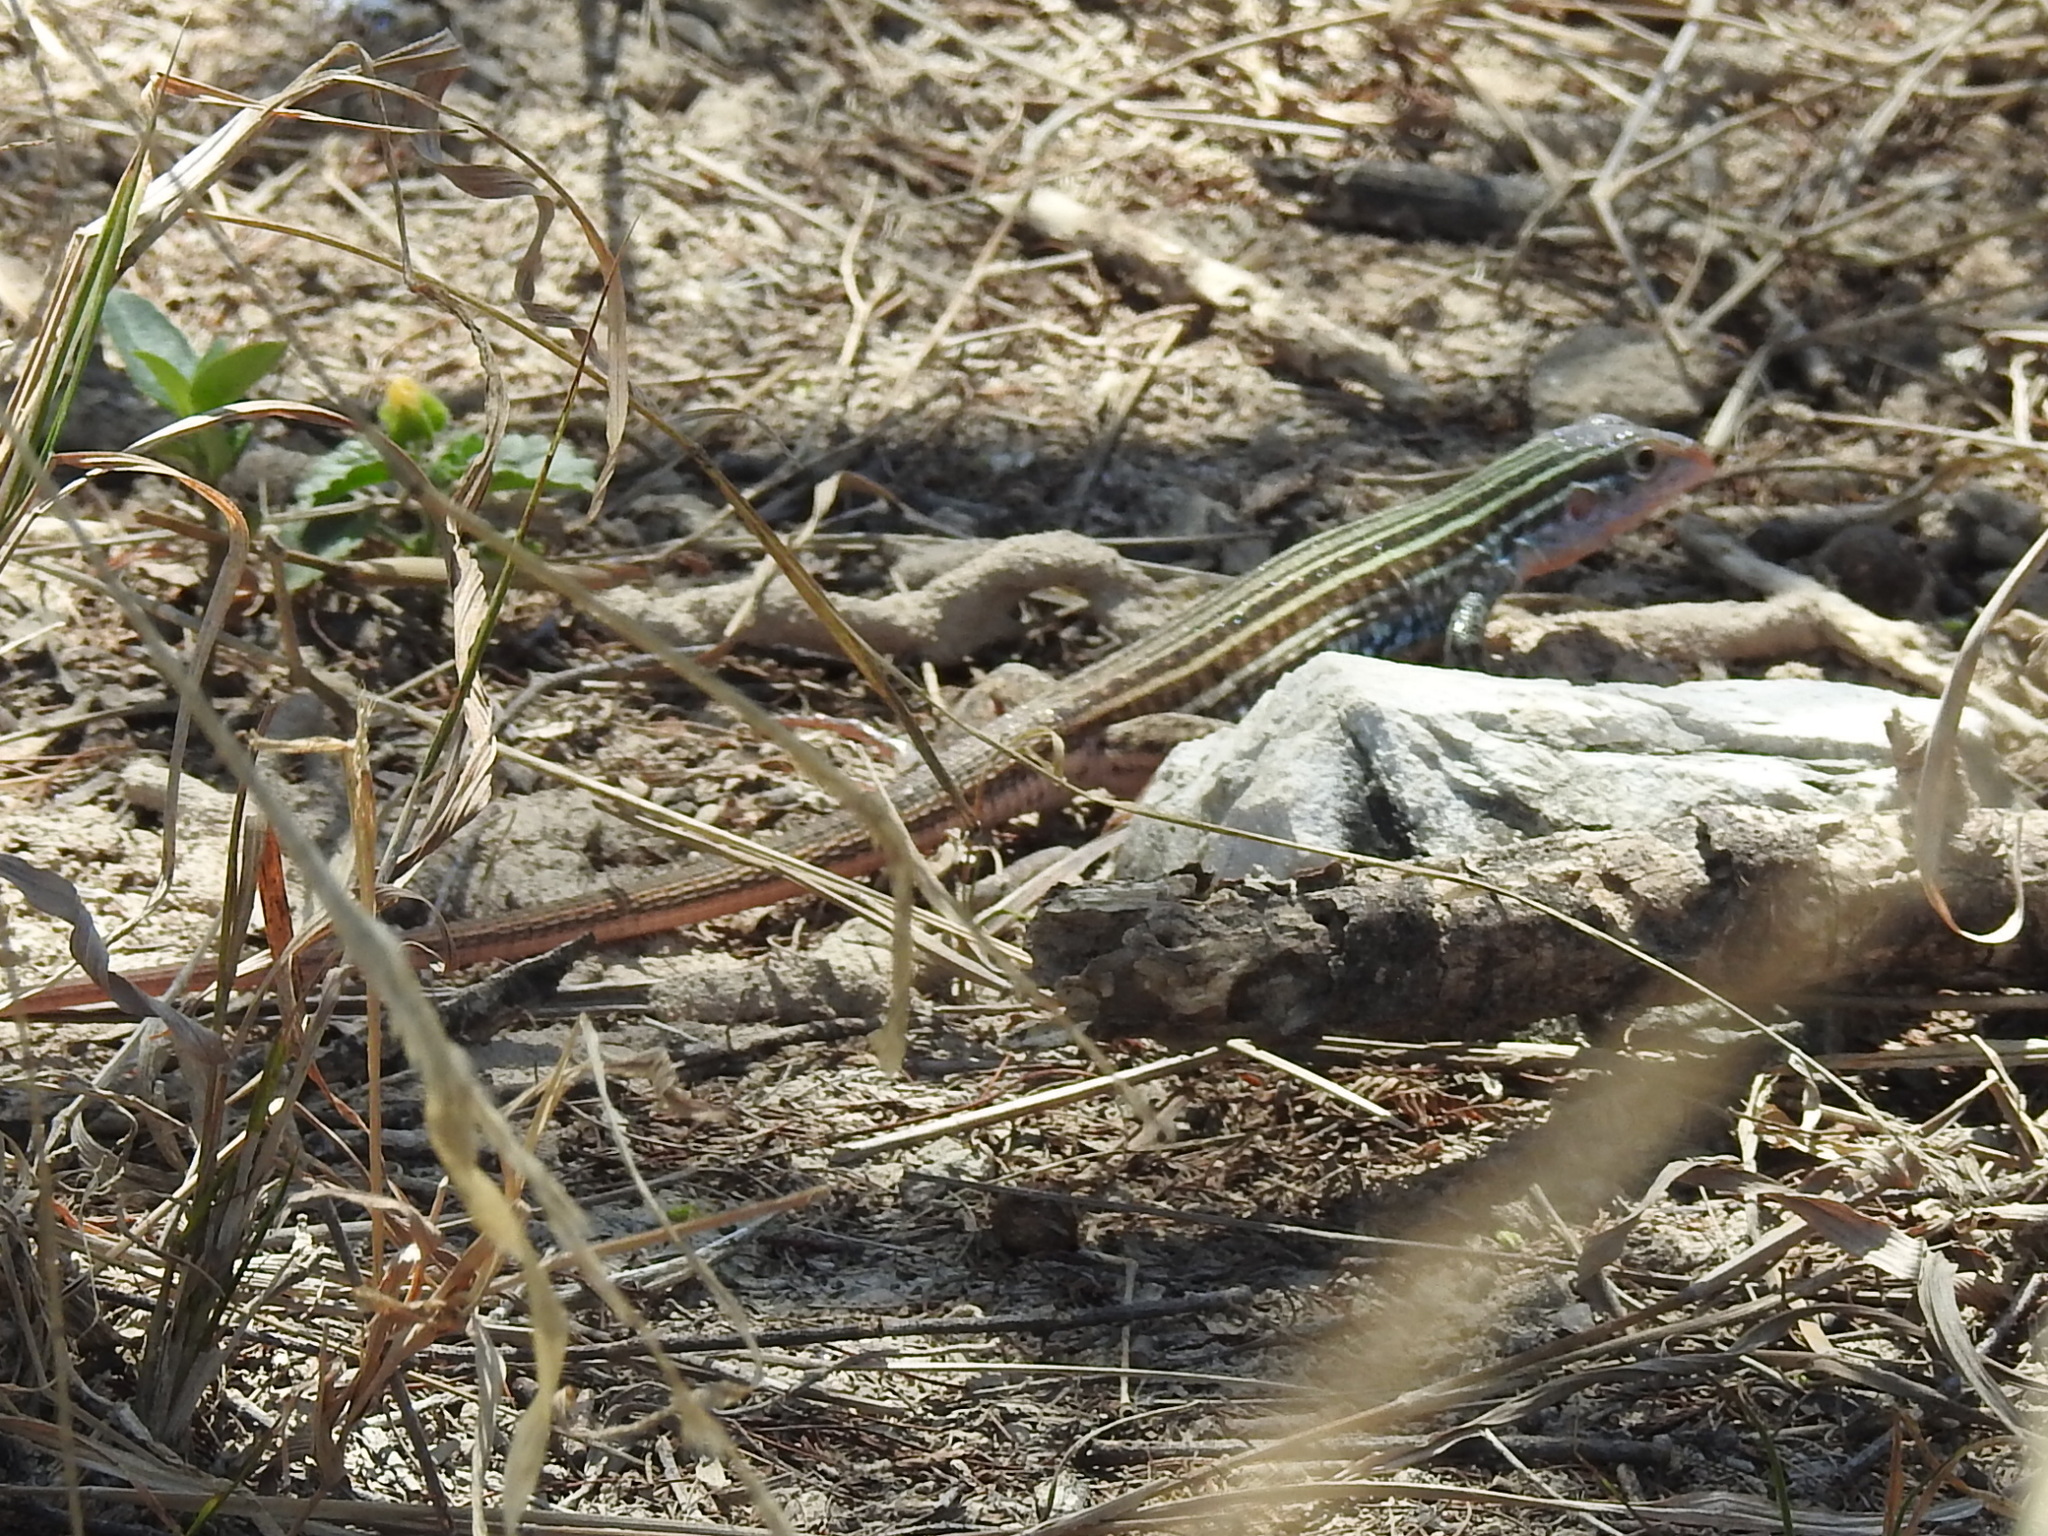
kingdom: Animalia
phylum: Chordata
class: Squamata
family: Teiidae
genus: Aspidoscelis
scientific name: Aspidoscelis gularis
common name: Eastern spotted whiptail
